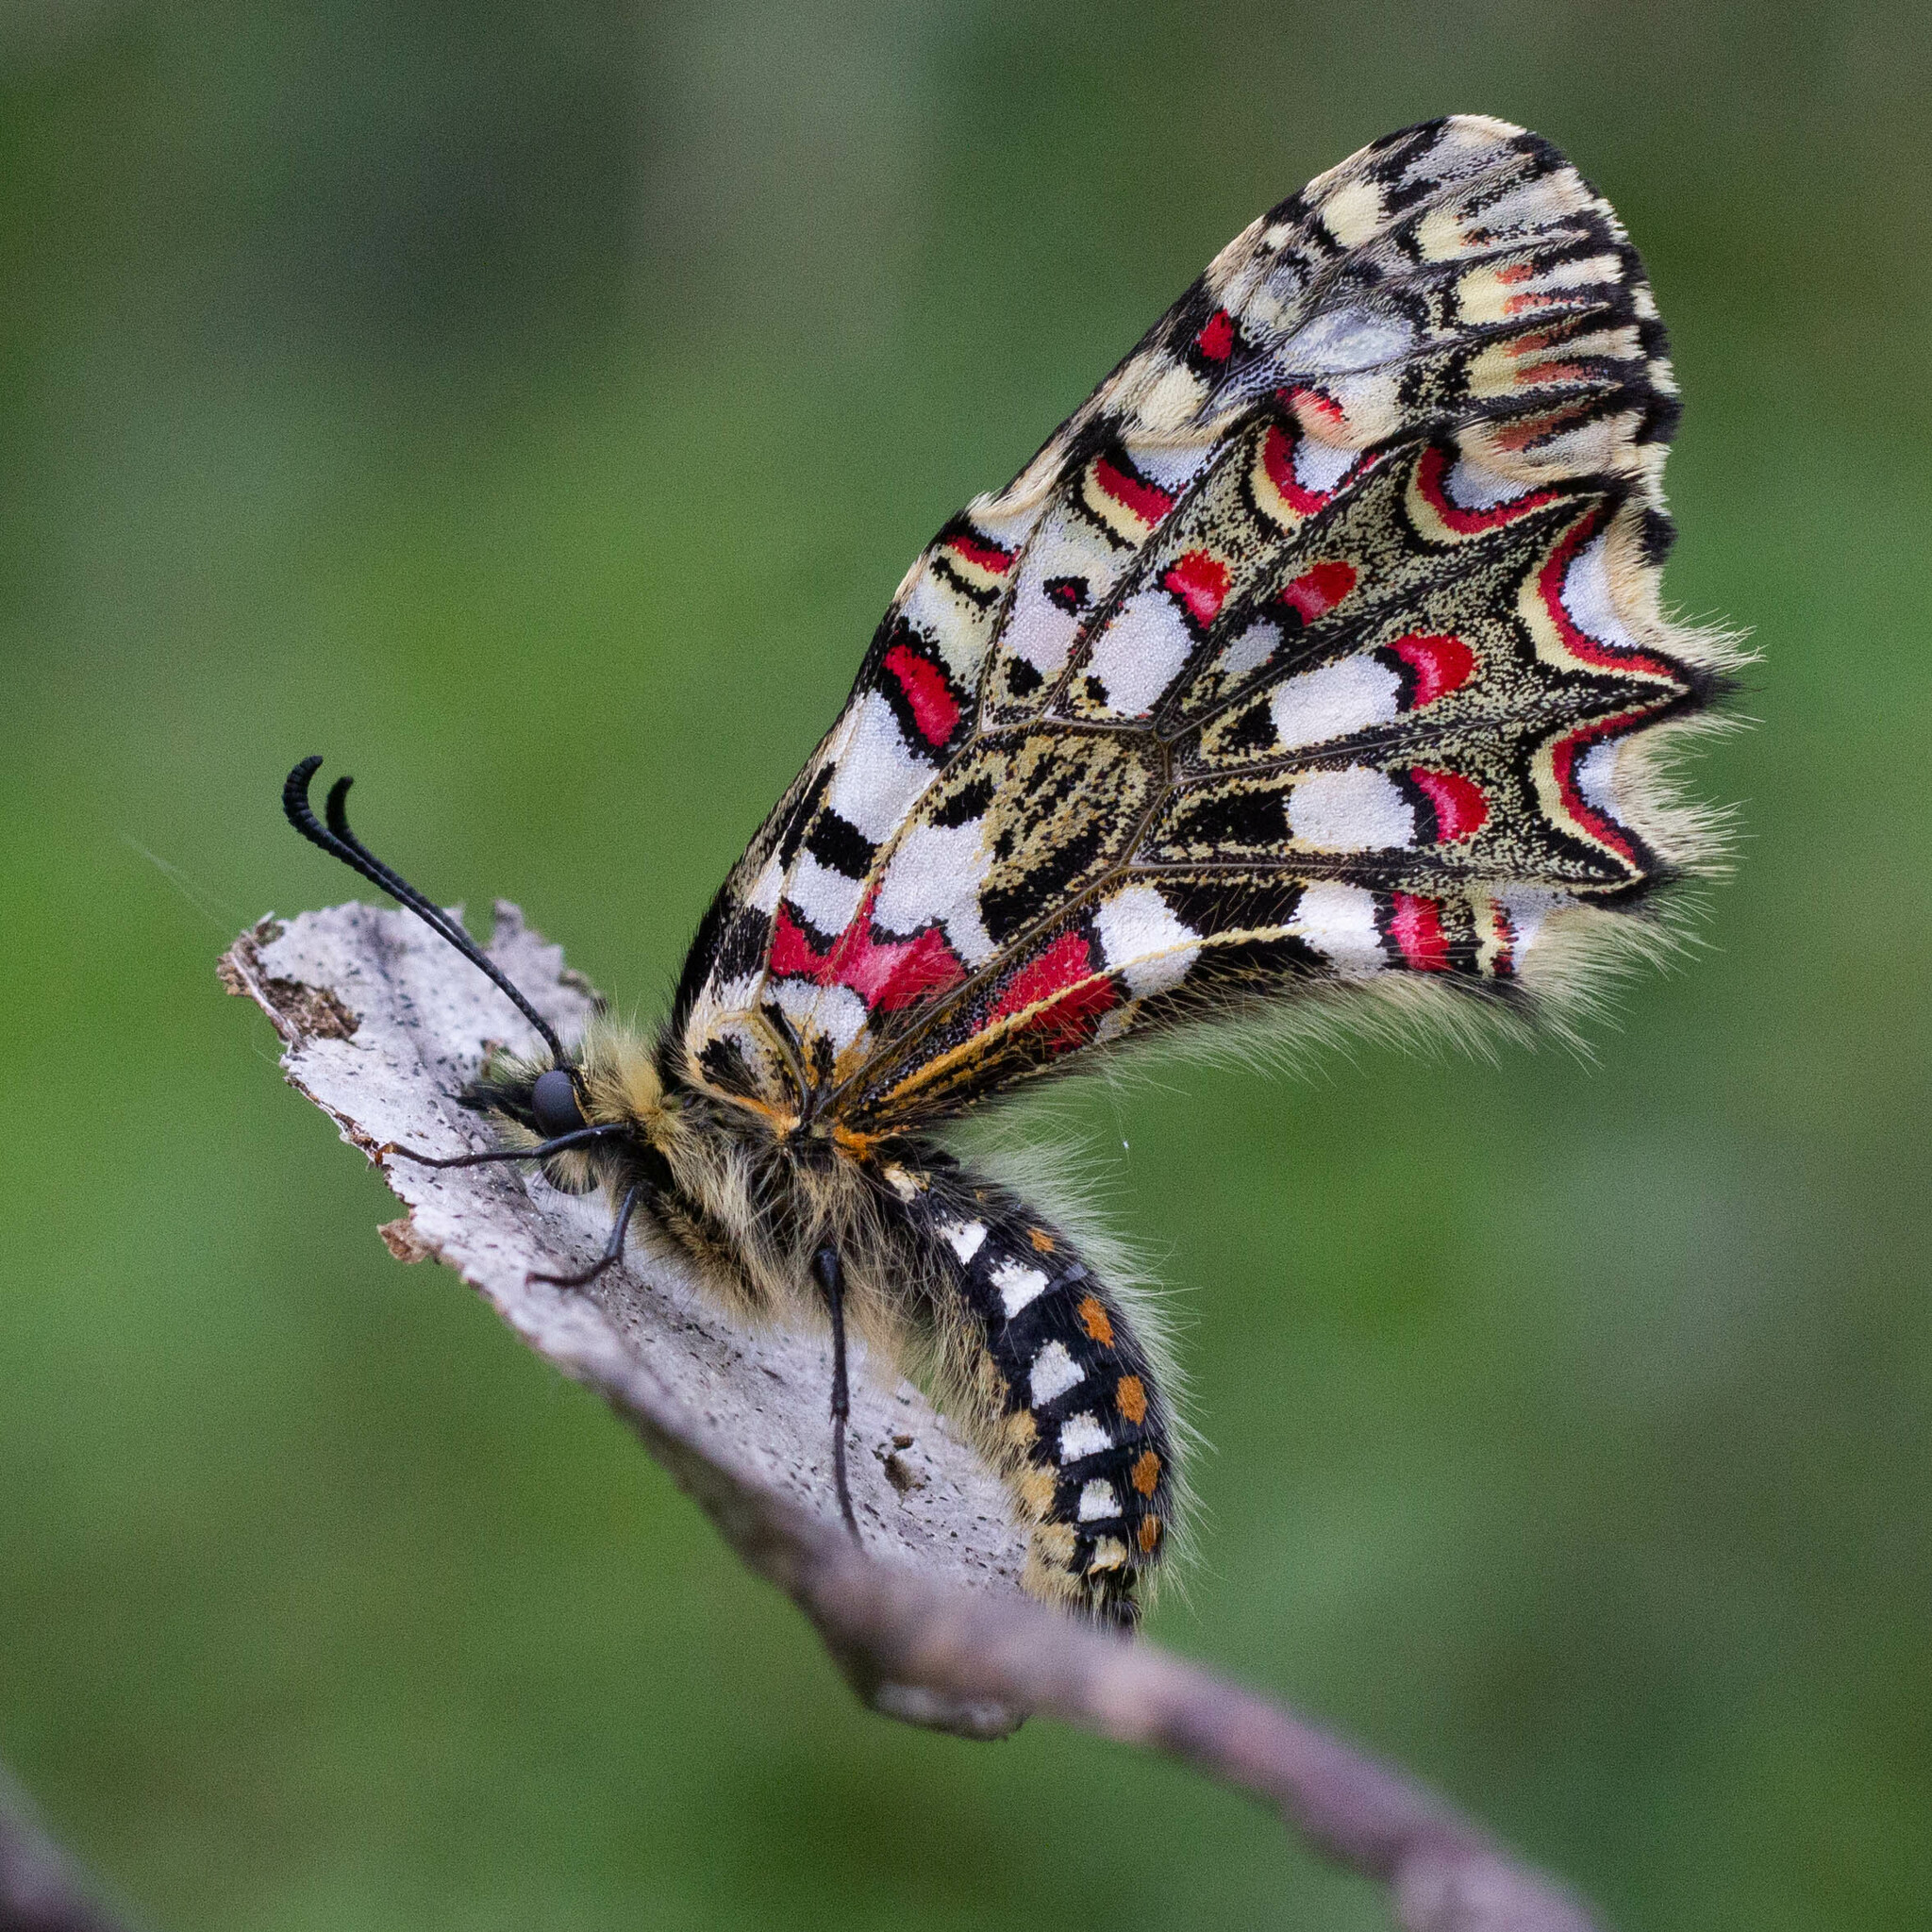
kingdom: Animalia
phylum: Arthropoda
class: Insecta
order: Lepidoptera
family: Papilionidae
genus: Zerynthia
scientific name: Zerynthia rumina
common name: Spanish festoon
